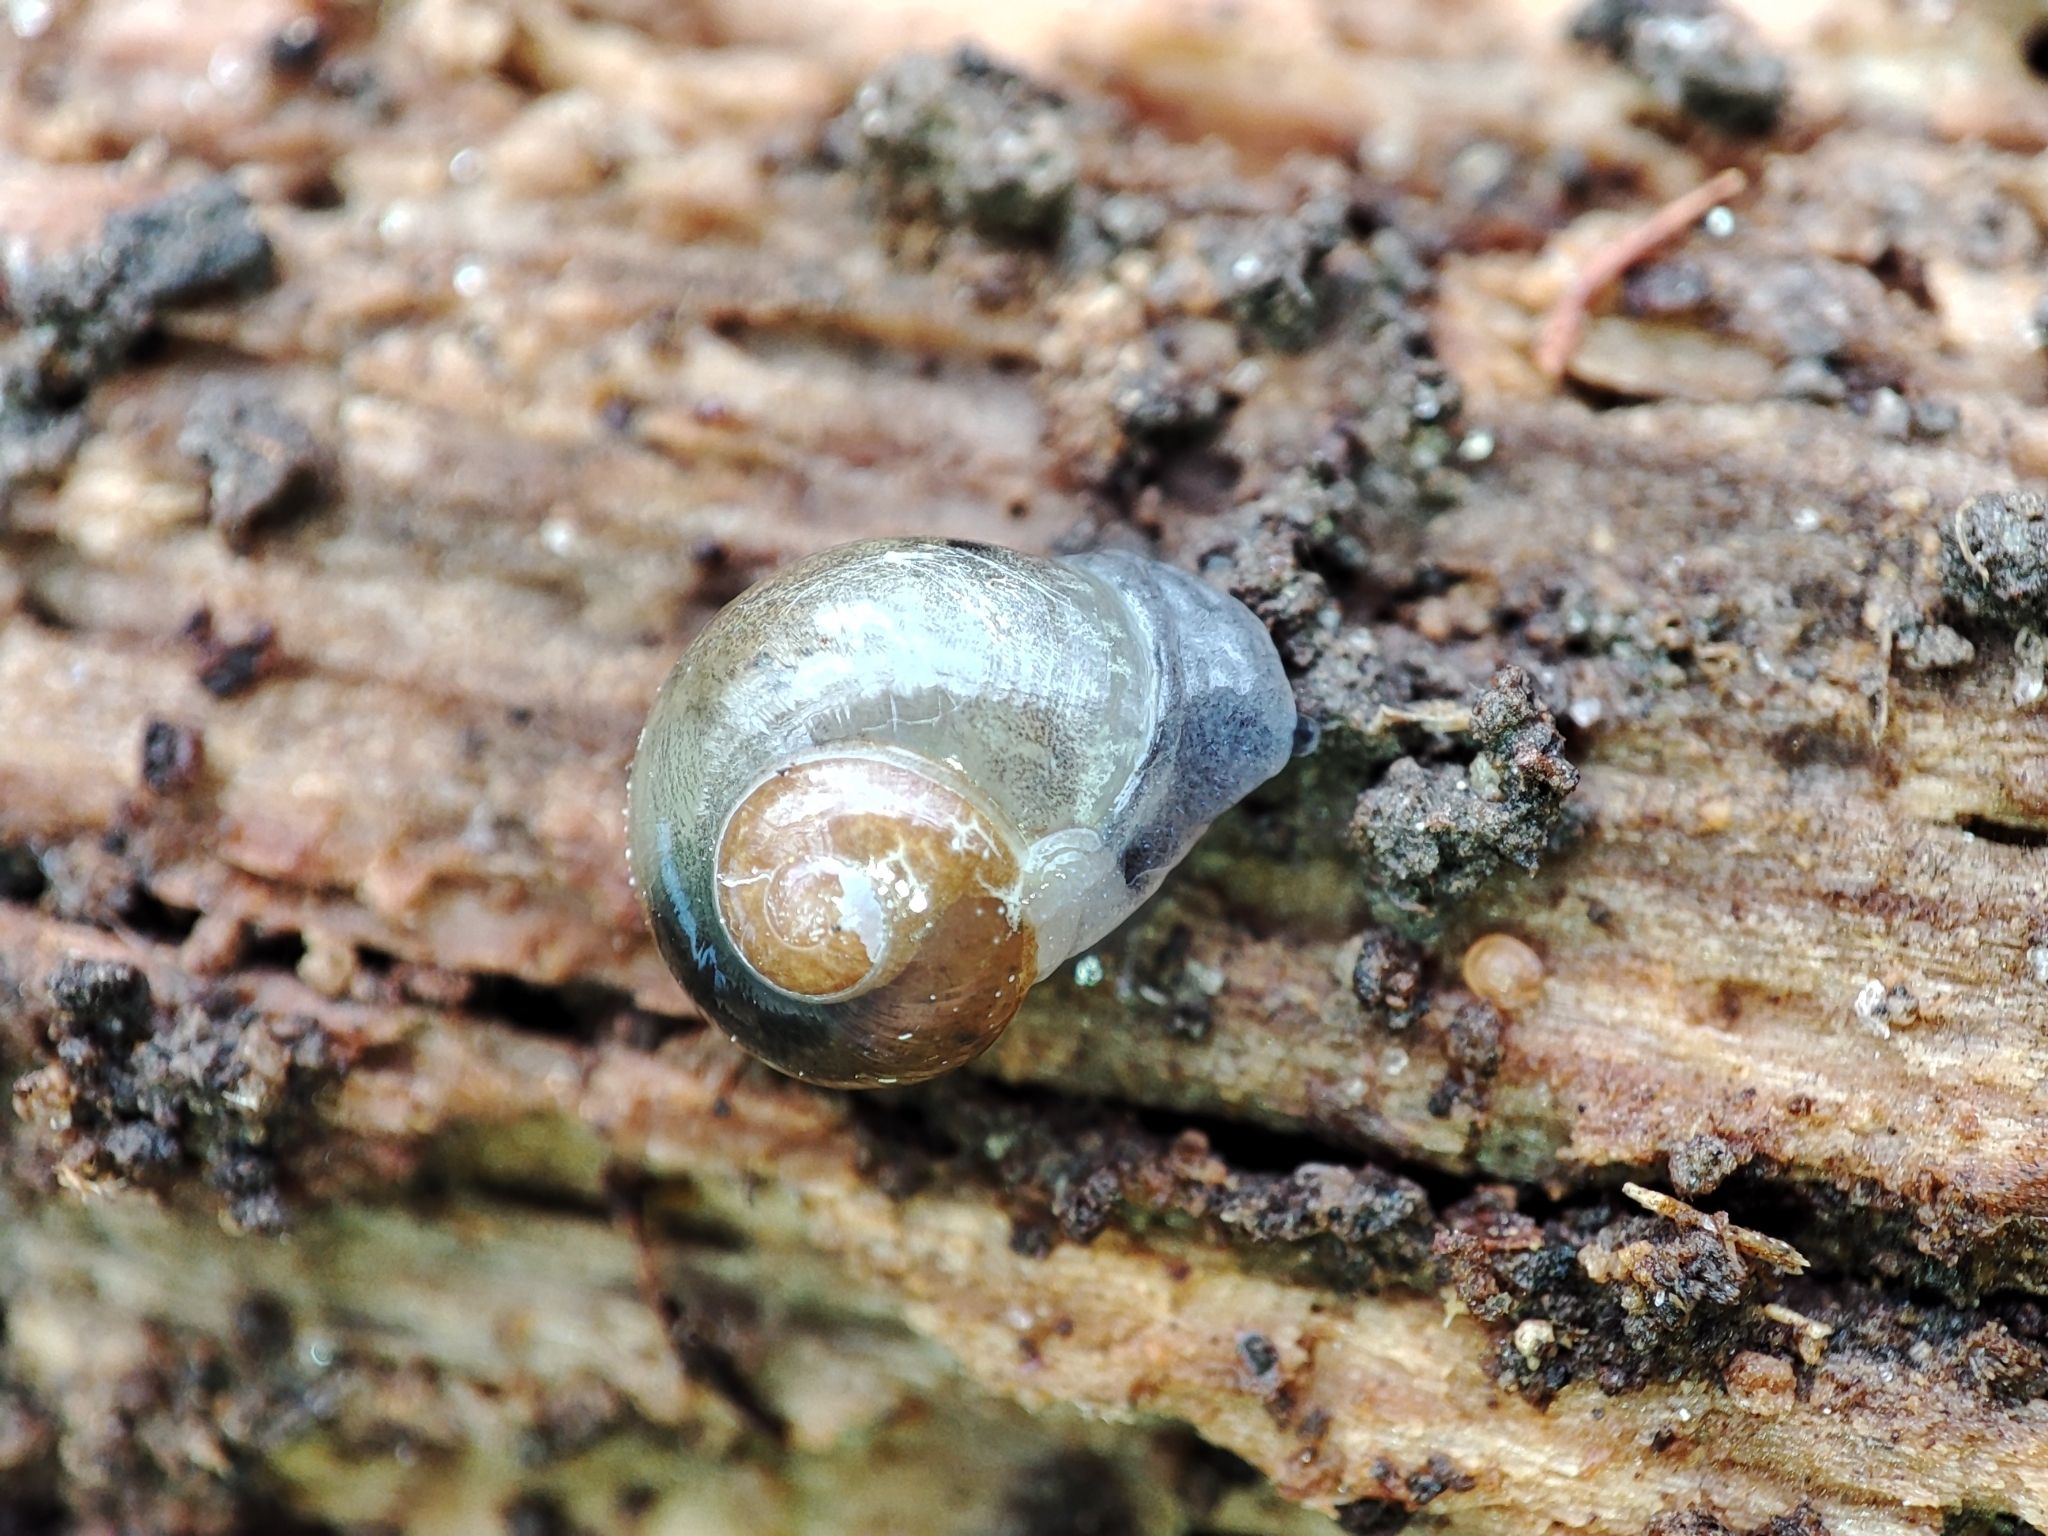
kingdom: Animalia
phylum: Mollusca
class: Gastropoda
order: Stylommatophora
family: Vitrinidae
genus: Vitrina
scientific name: Vitrina pellucida
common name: Pellucid glass snail
